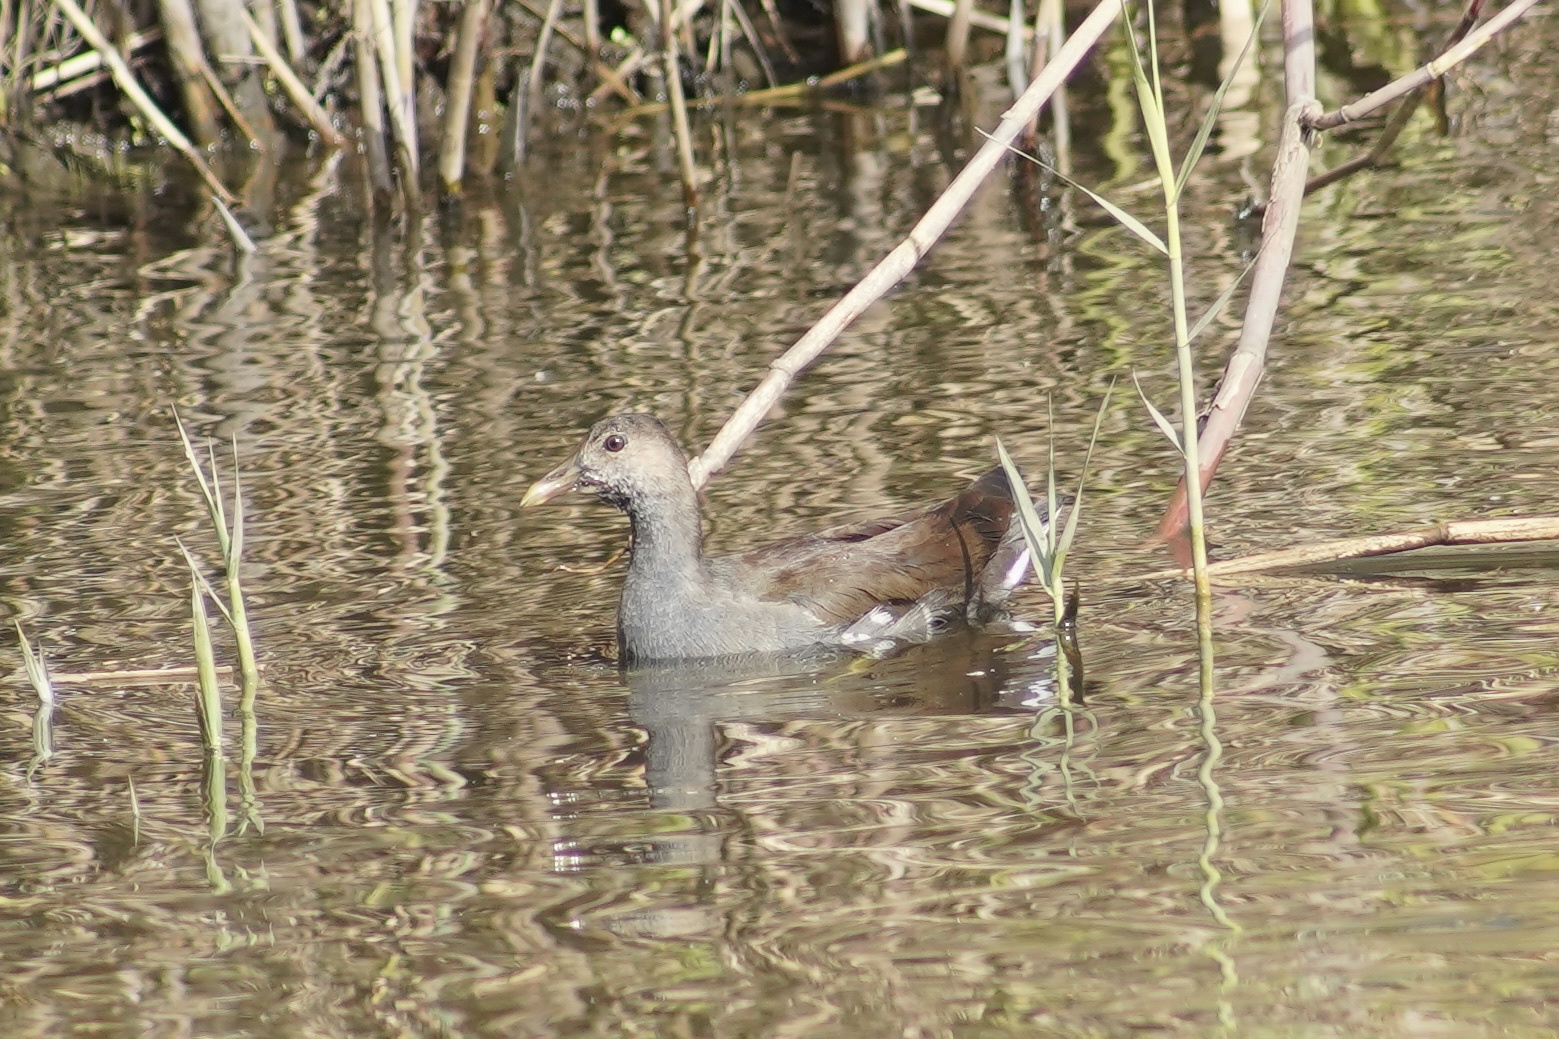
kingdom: Animalia
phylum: Chordata
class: Aves
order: Gruiformes
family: Rallidae
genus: Gallinula
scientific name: Gallinula chloropus
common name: Common moorhen
